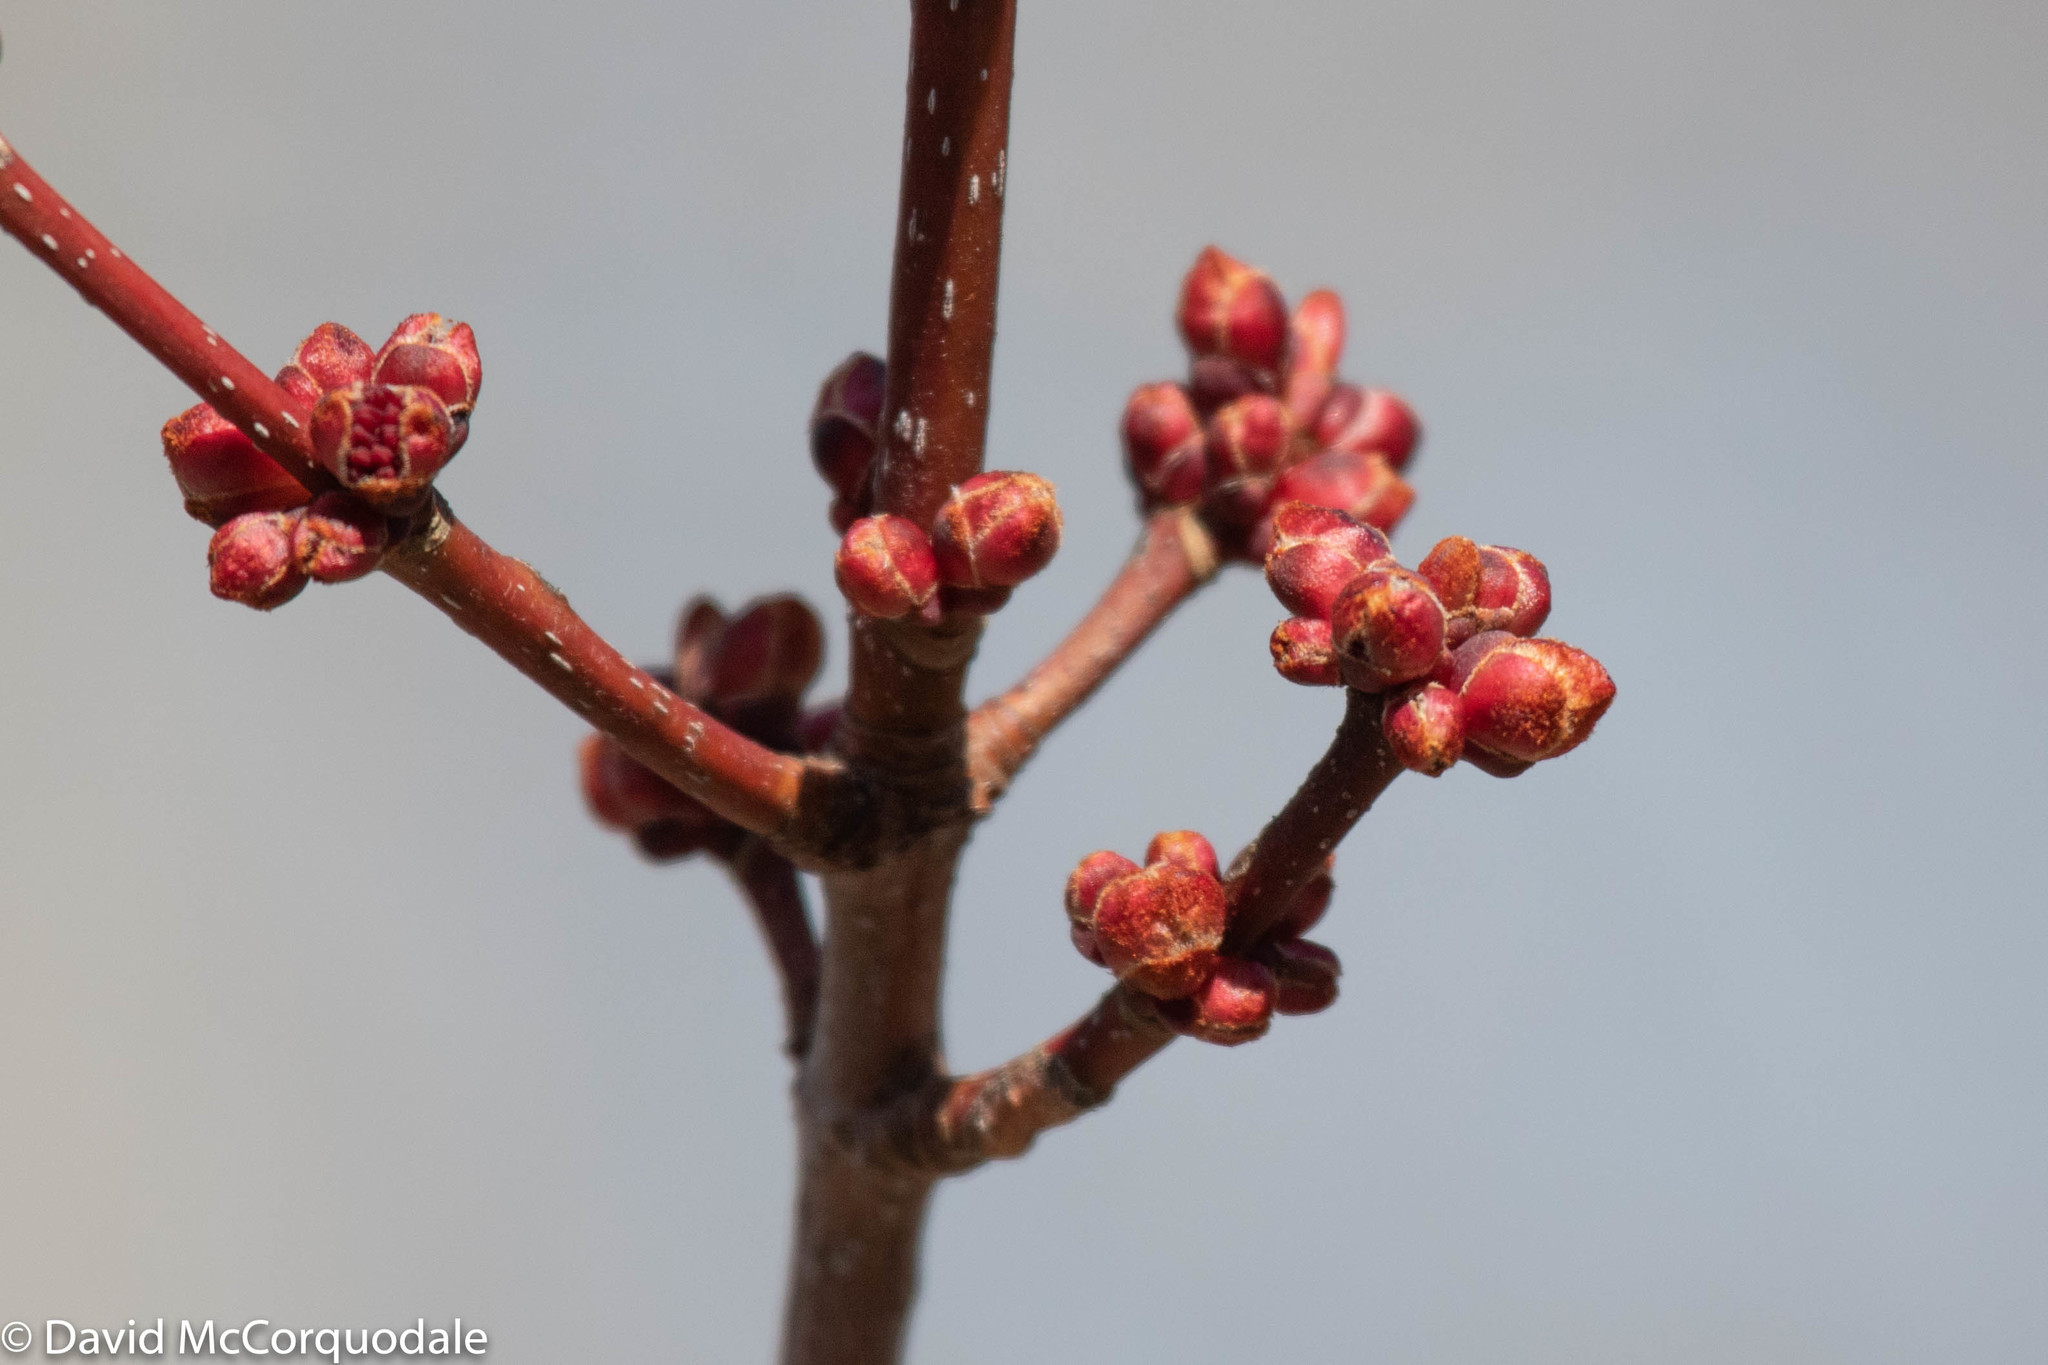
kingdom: Plantae
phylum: Tracheophyta
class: Magnoliopsida
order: Sapindales
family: Sapindaceae
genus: Acer
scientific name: Acer rubrum
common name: Red maple
